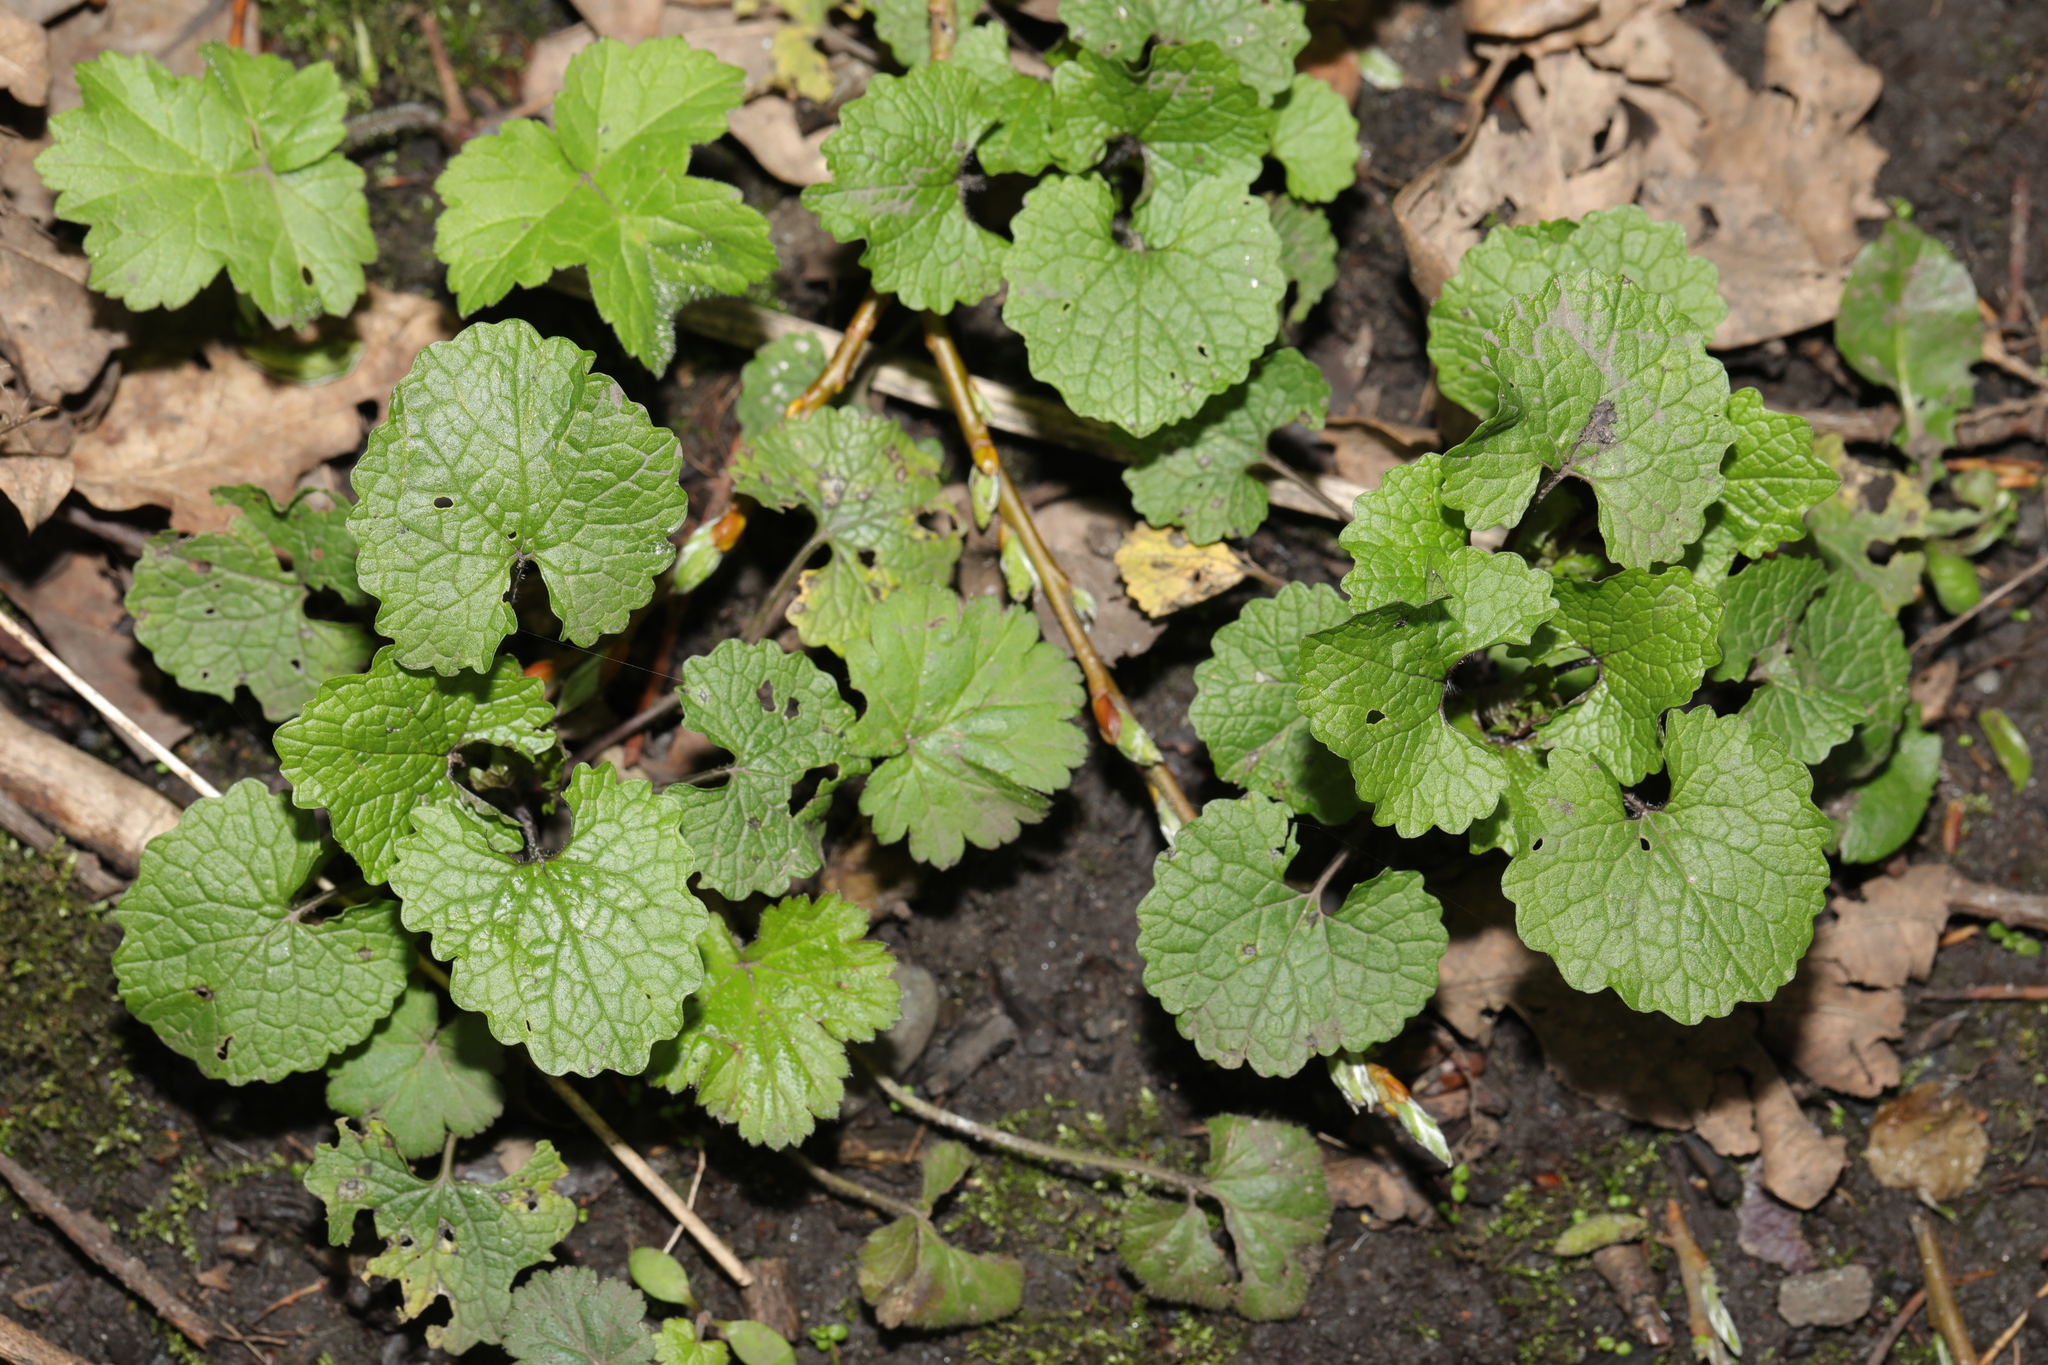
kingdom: Plantae
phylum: Tracheophyta
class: Magnoliopsida
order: Brassicales
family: Brassicaceae
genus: Alliaria
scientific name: Alliaria petiolata
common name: Garlic mustard
